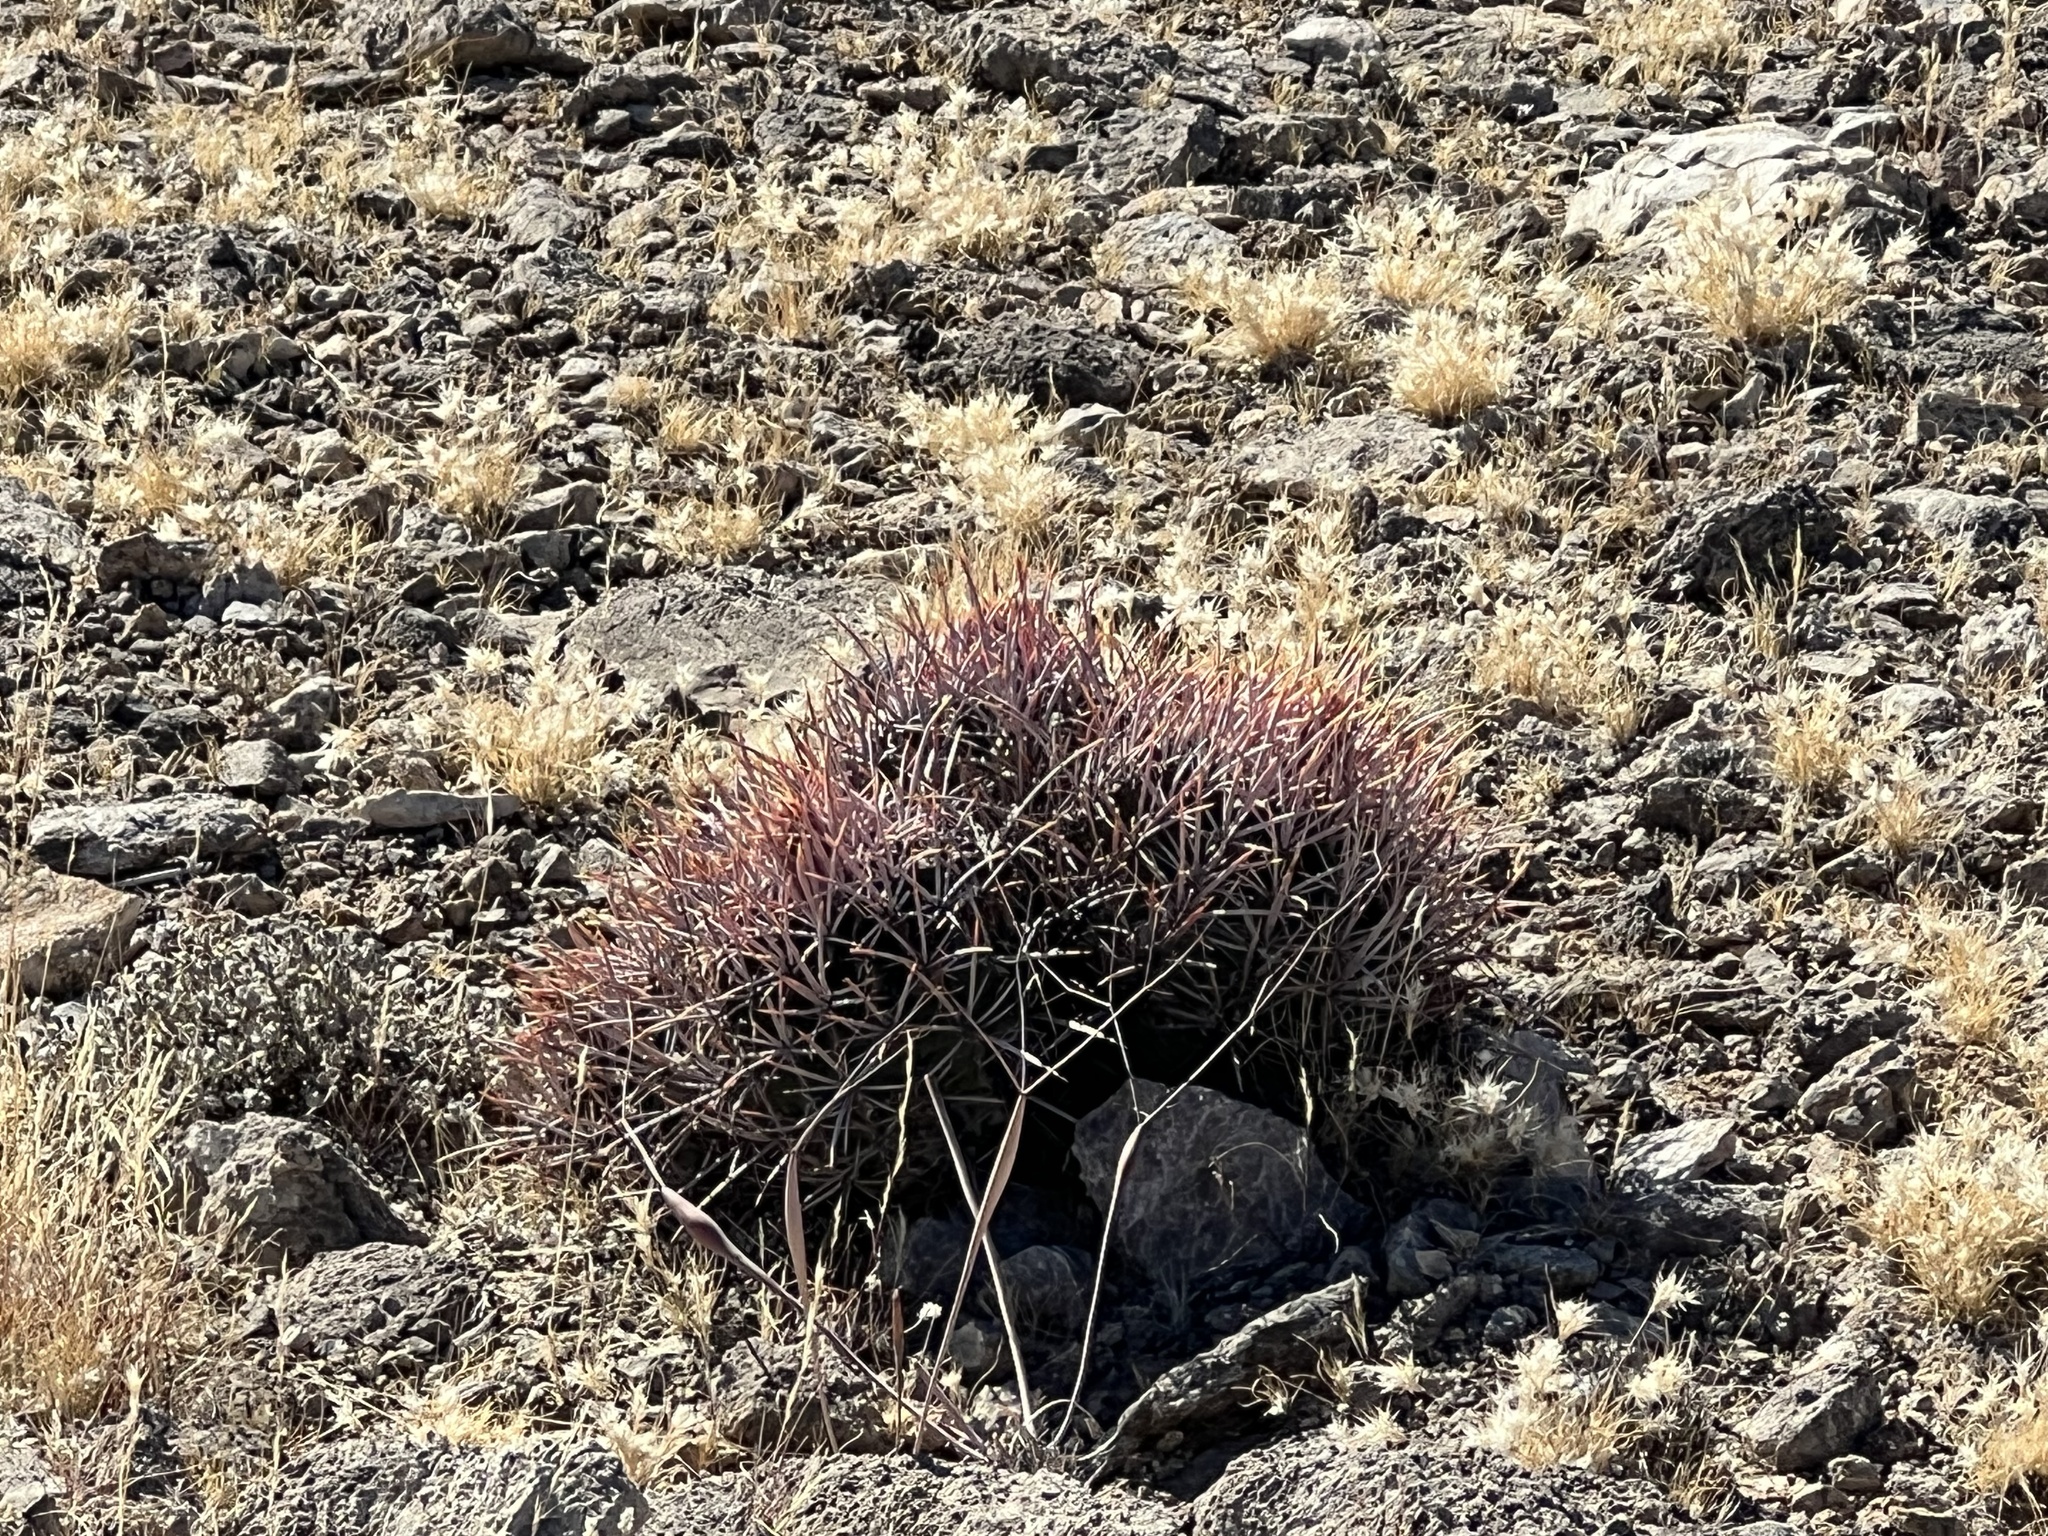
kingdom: Plantae
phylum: Tracheophyta
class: Magnoliopsida
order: Caryophyllales
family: Cactaceae
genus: Echinocactus
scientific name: Echinocactus polycephalus
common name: Cottontop cactus
